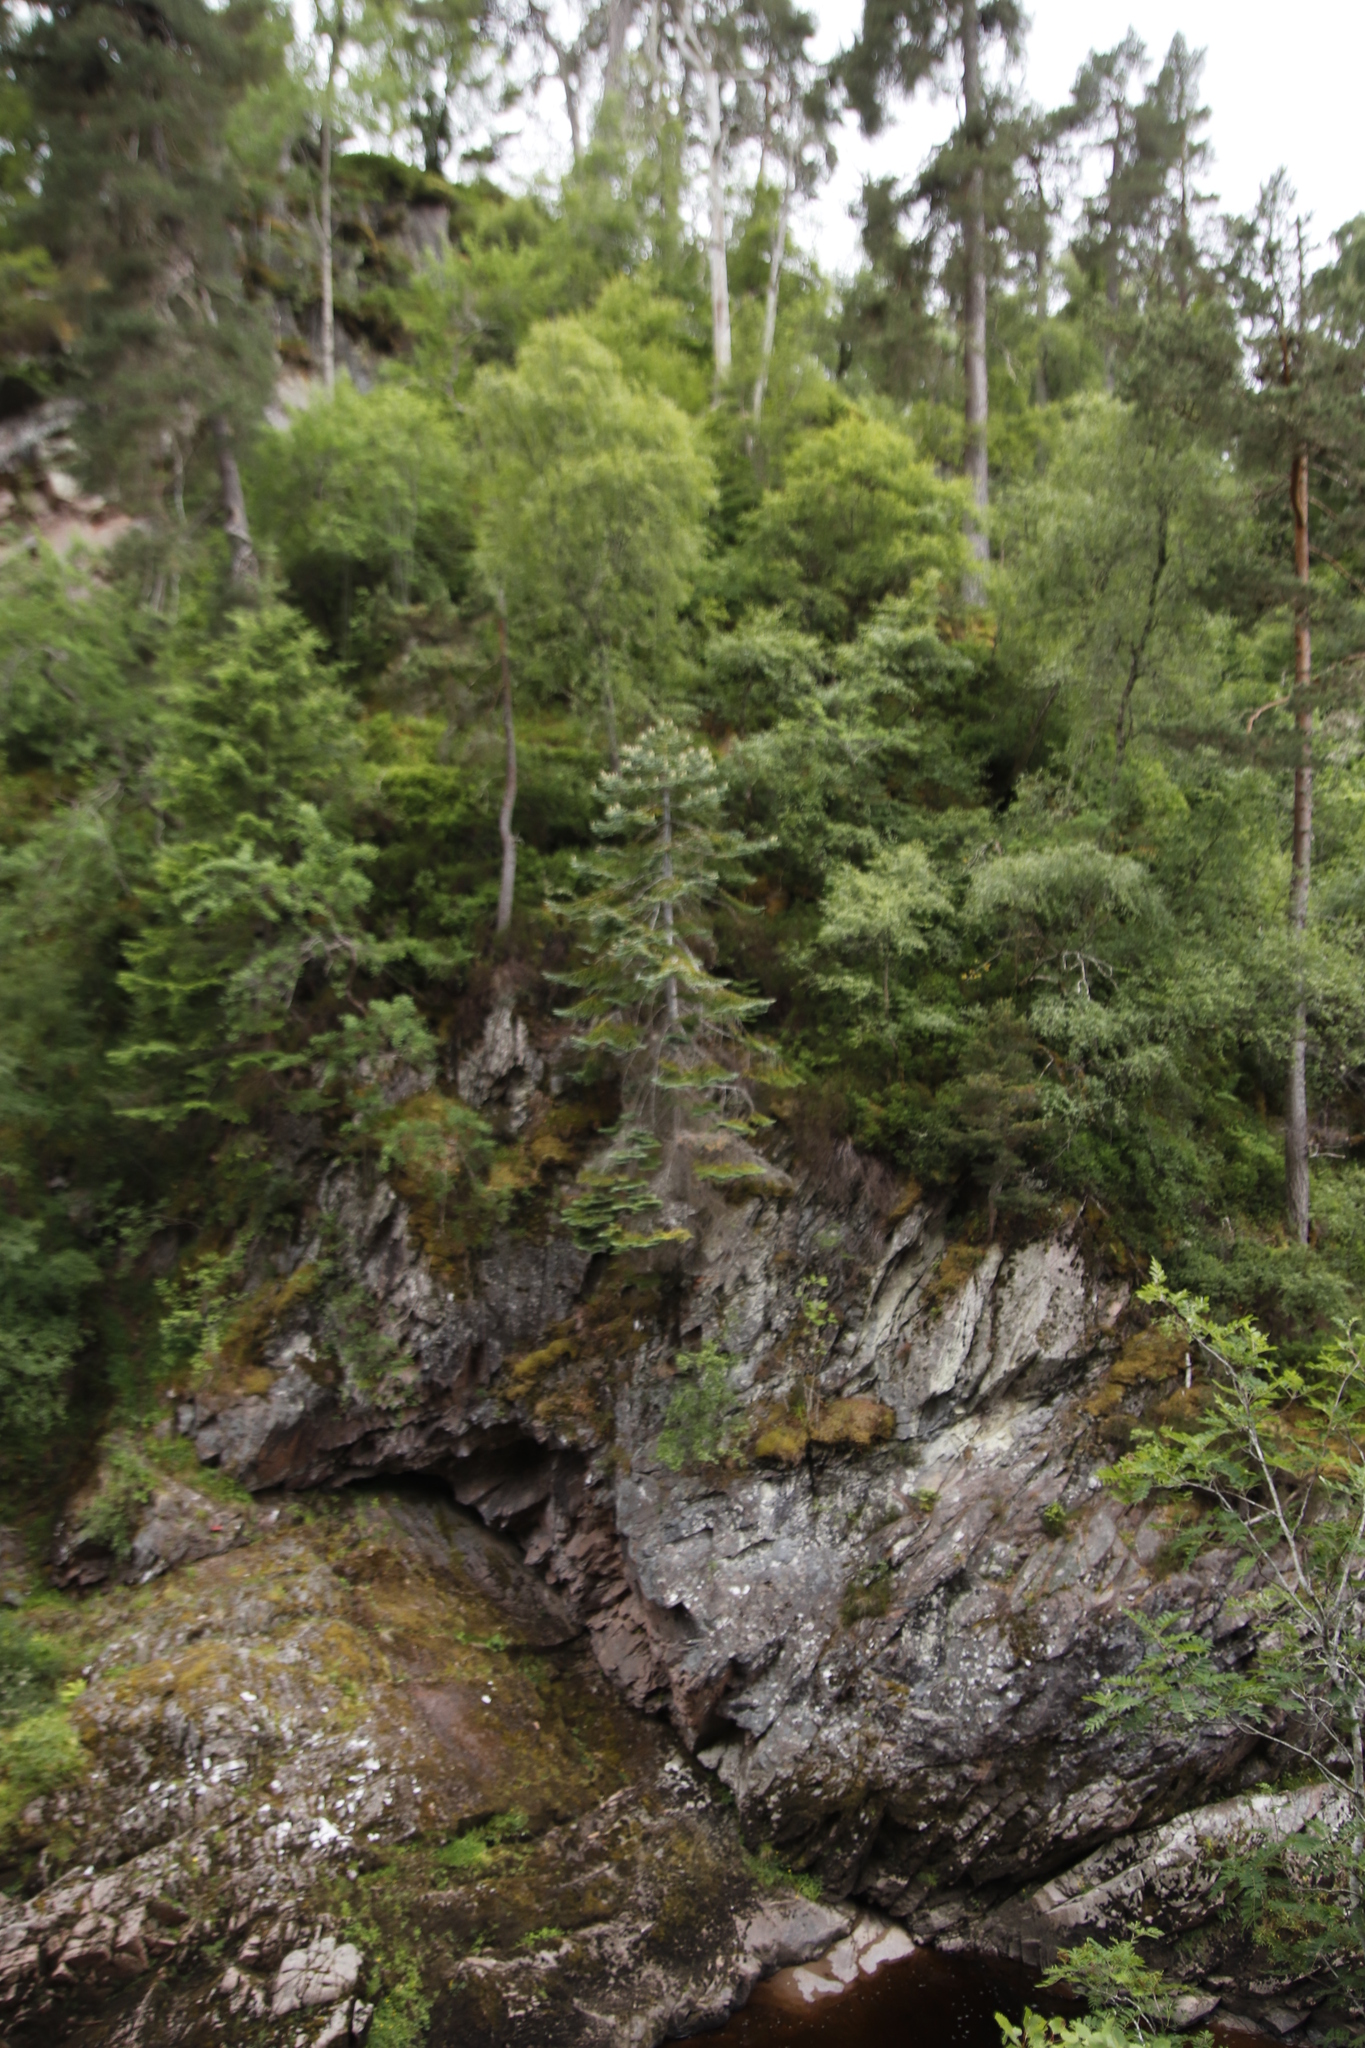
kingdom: Plantae
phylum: Tracheophyta
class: Pinopsida
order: Pinales
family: Pinaceae
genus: Abies
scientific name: Abies procera
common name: Noble fir
